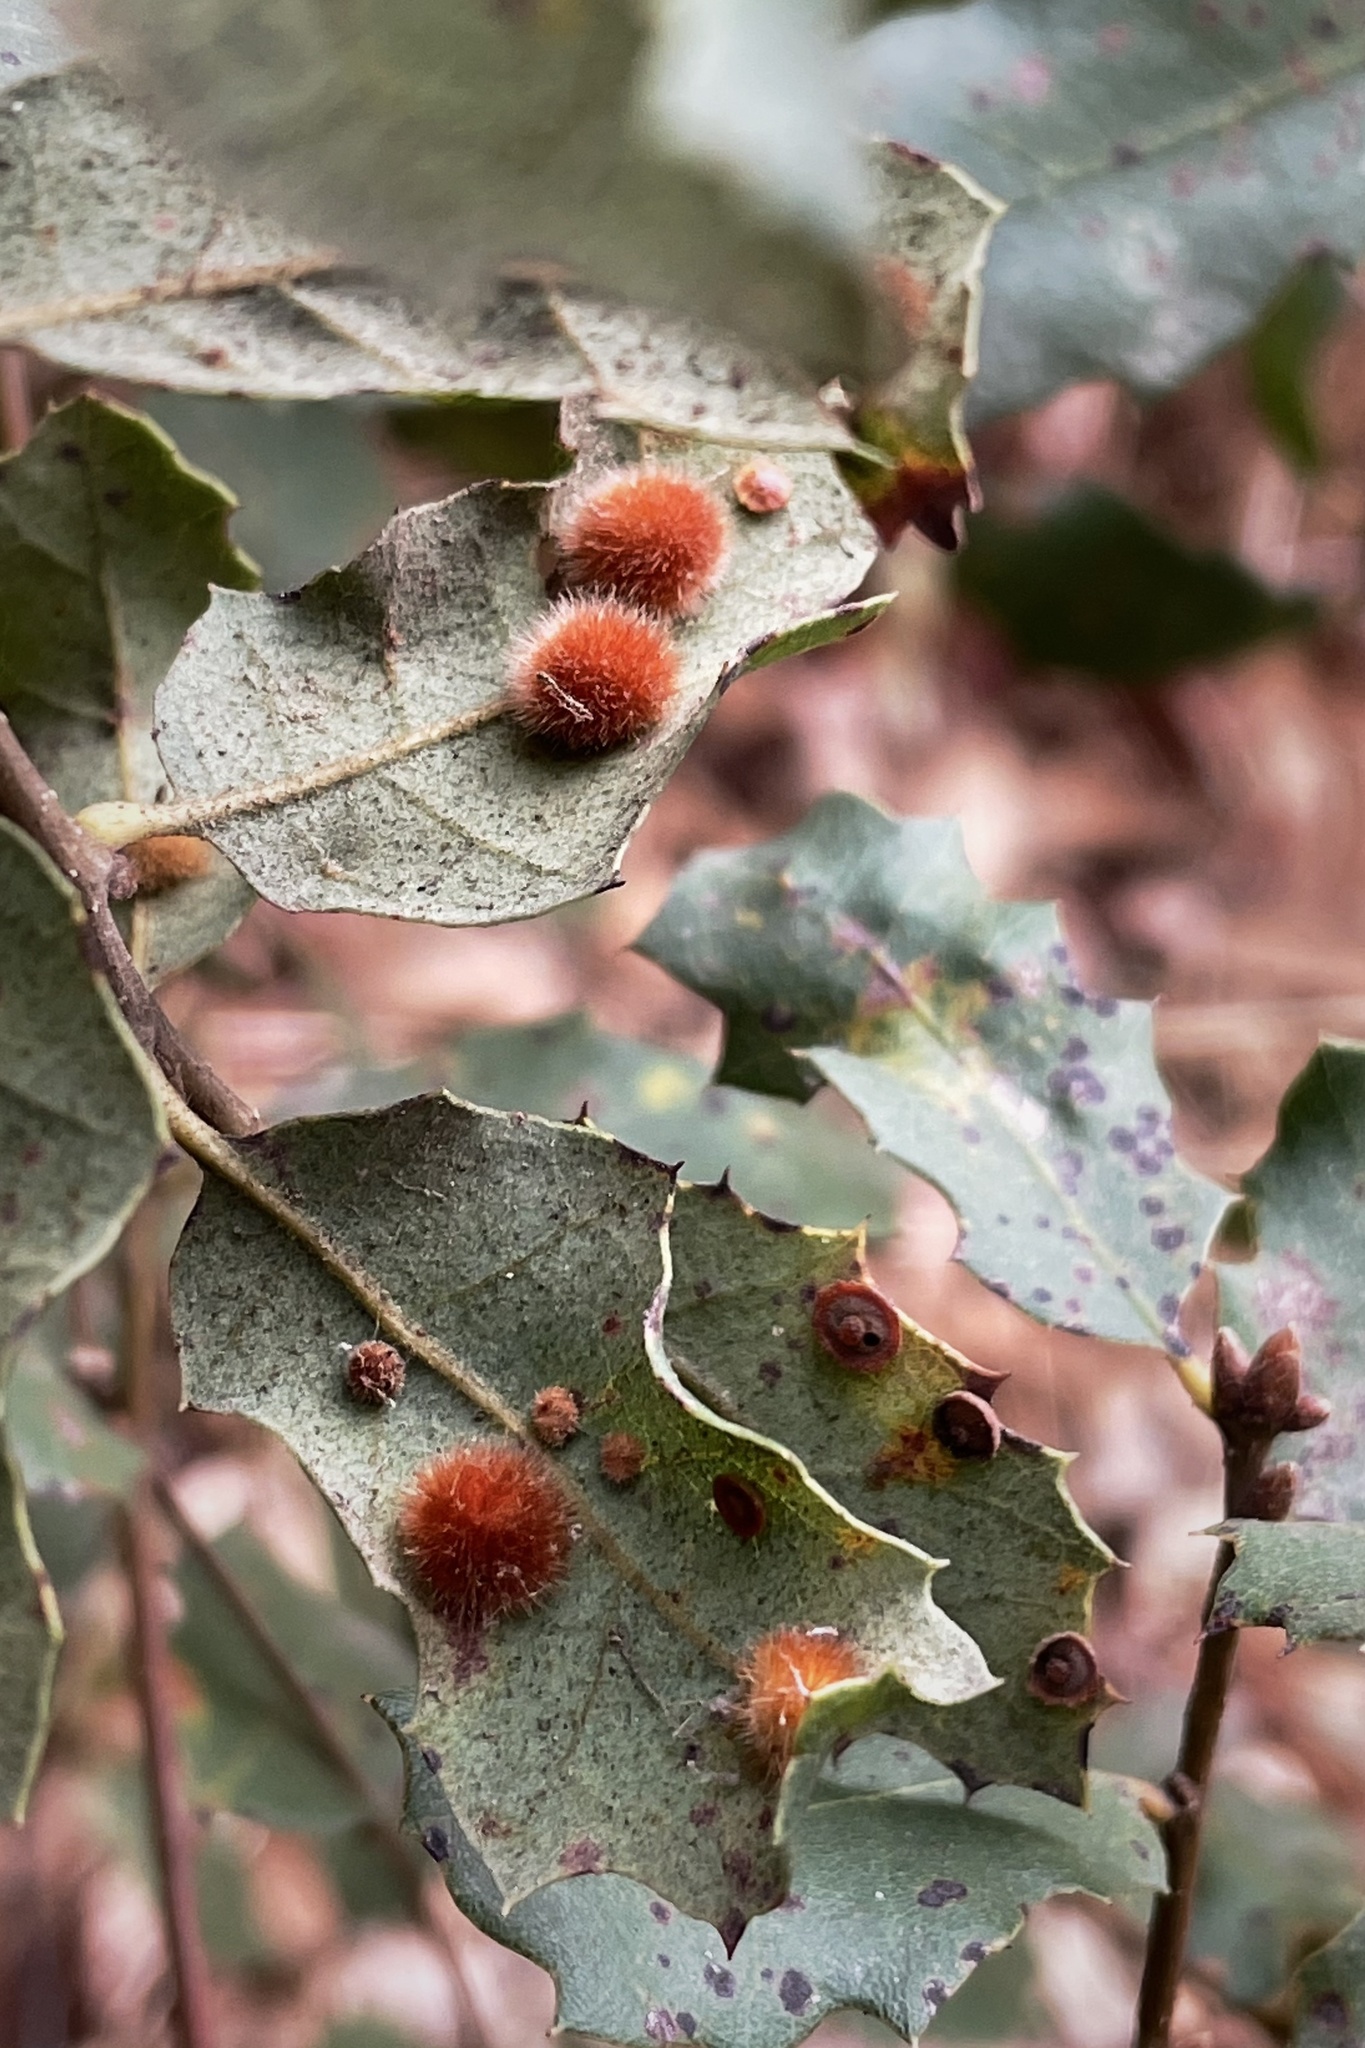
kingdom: Animalia
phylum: Arthropoda
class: Insecta
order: Hymenoptera
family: Cynipidae
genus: Atrusca
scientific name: Atrusca
